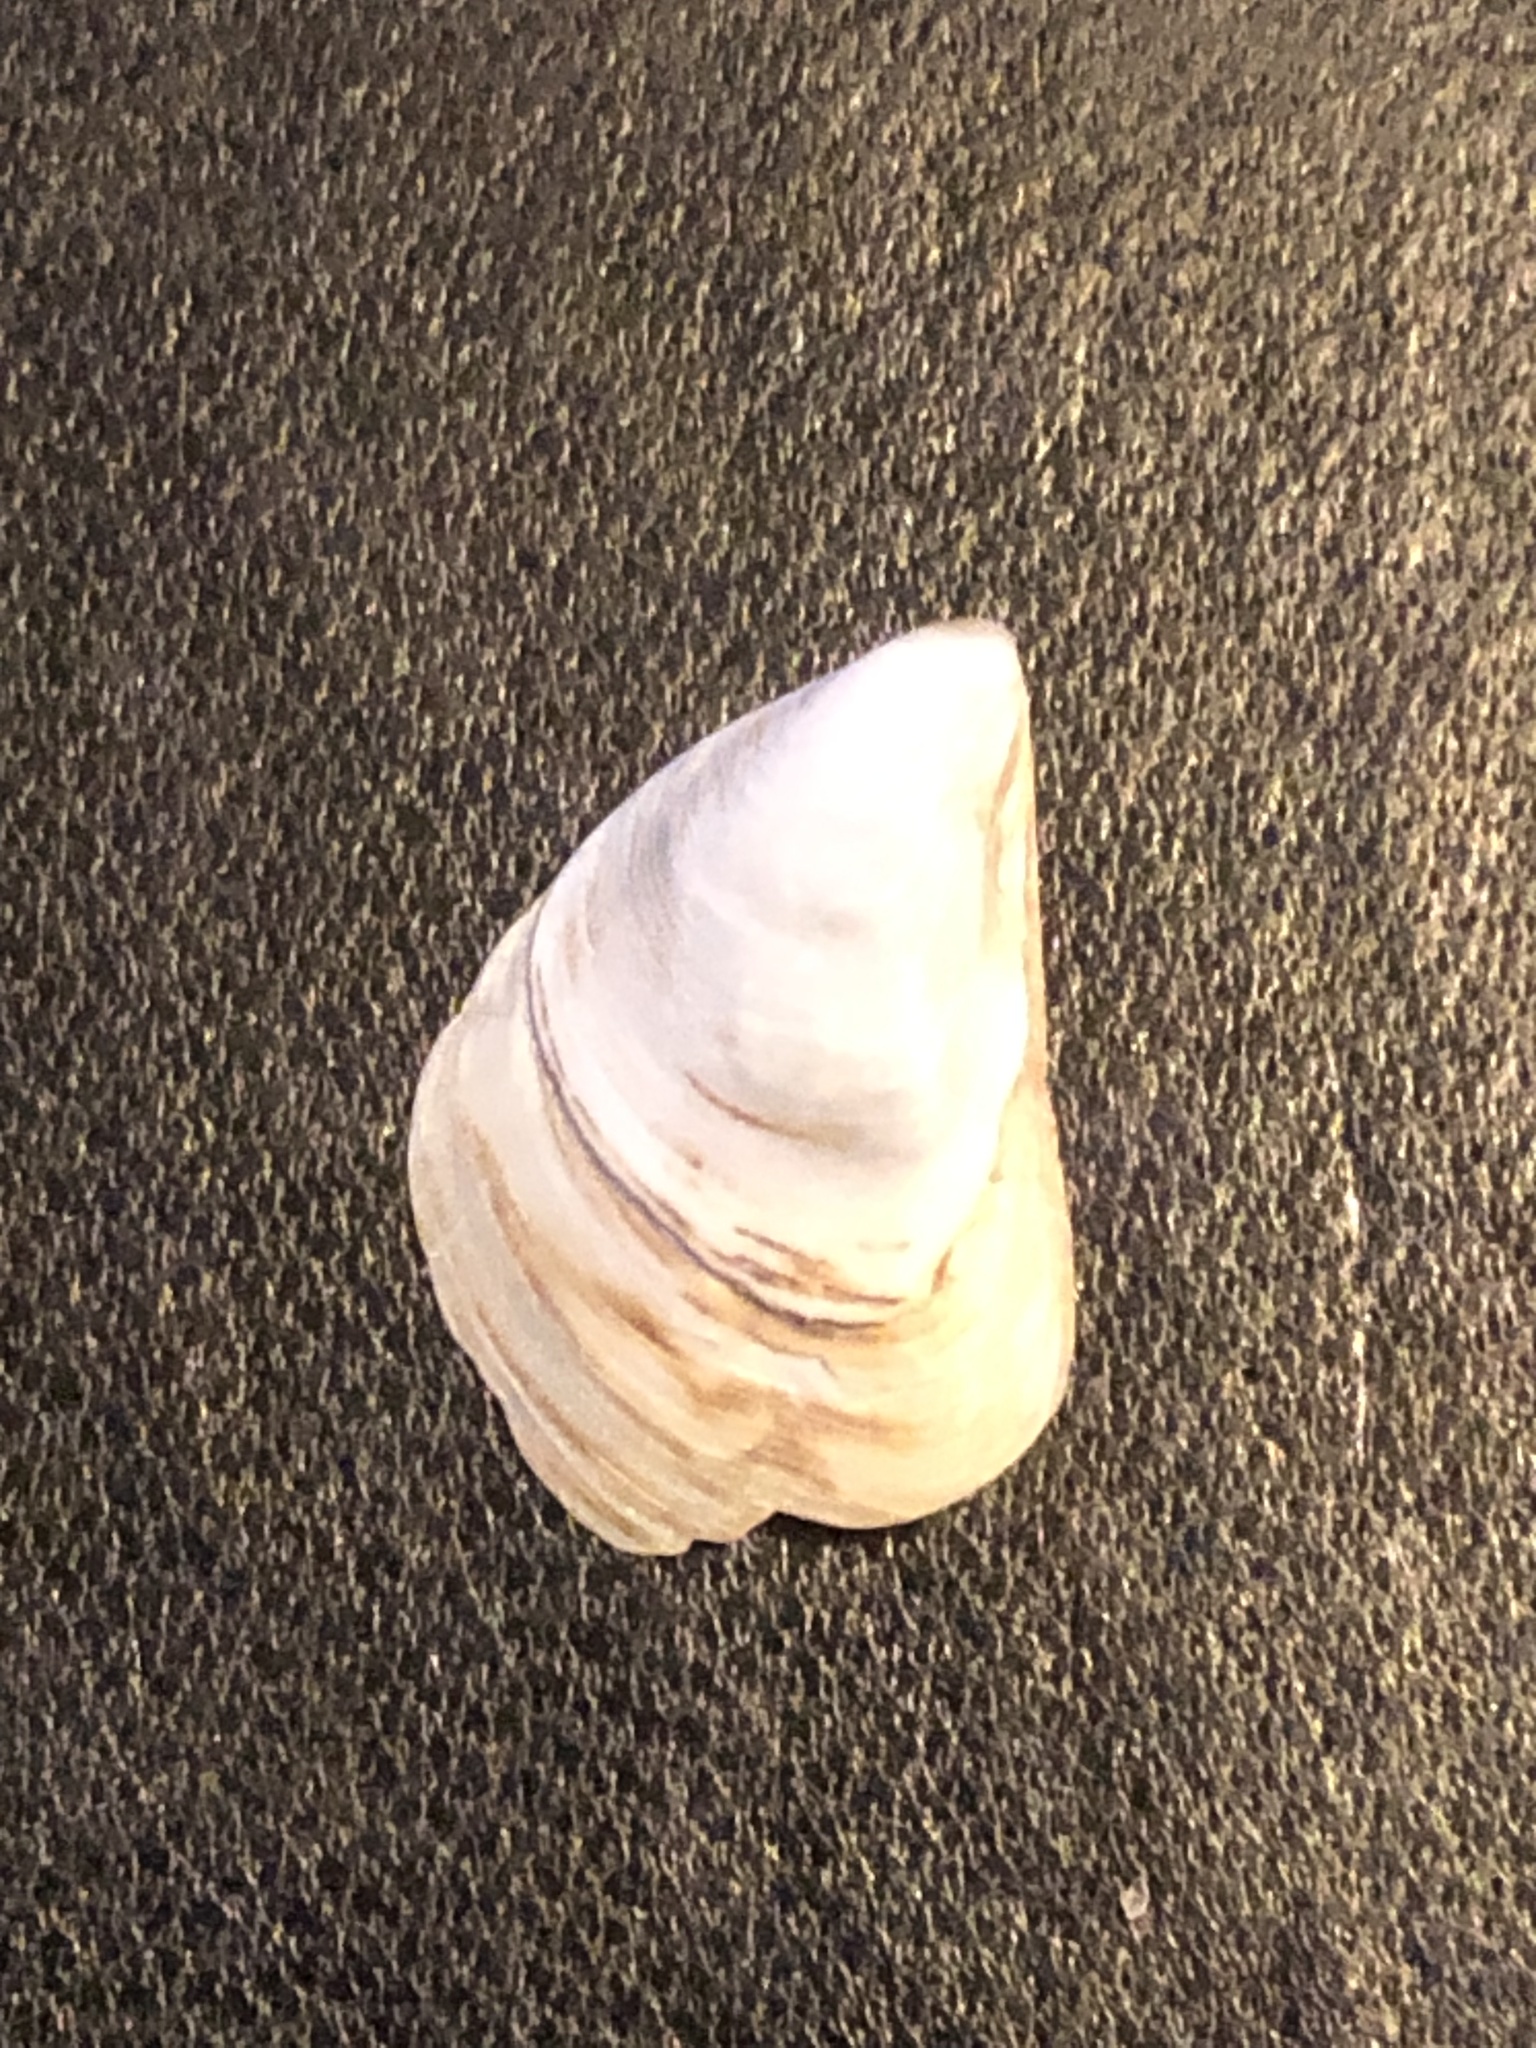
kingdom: Animalia
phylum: Mollusca
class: Bivalvia
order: Myida
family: Dreissenidae
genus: Dreissena
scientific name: Dreissena bugensis
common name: Quagga mussel
